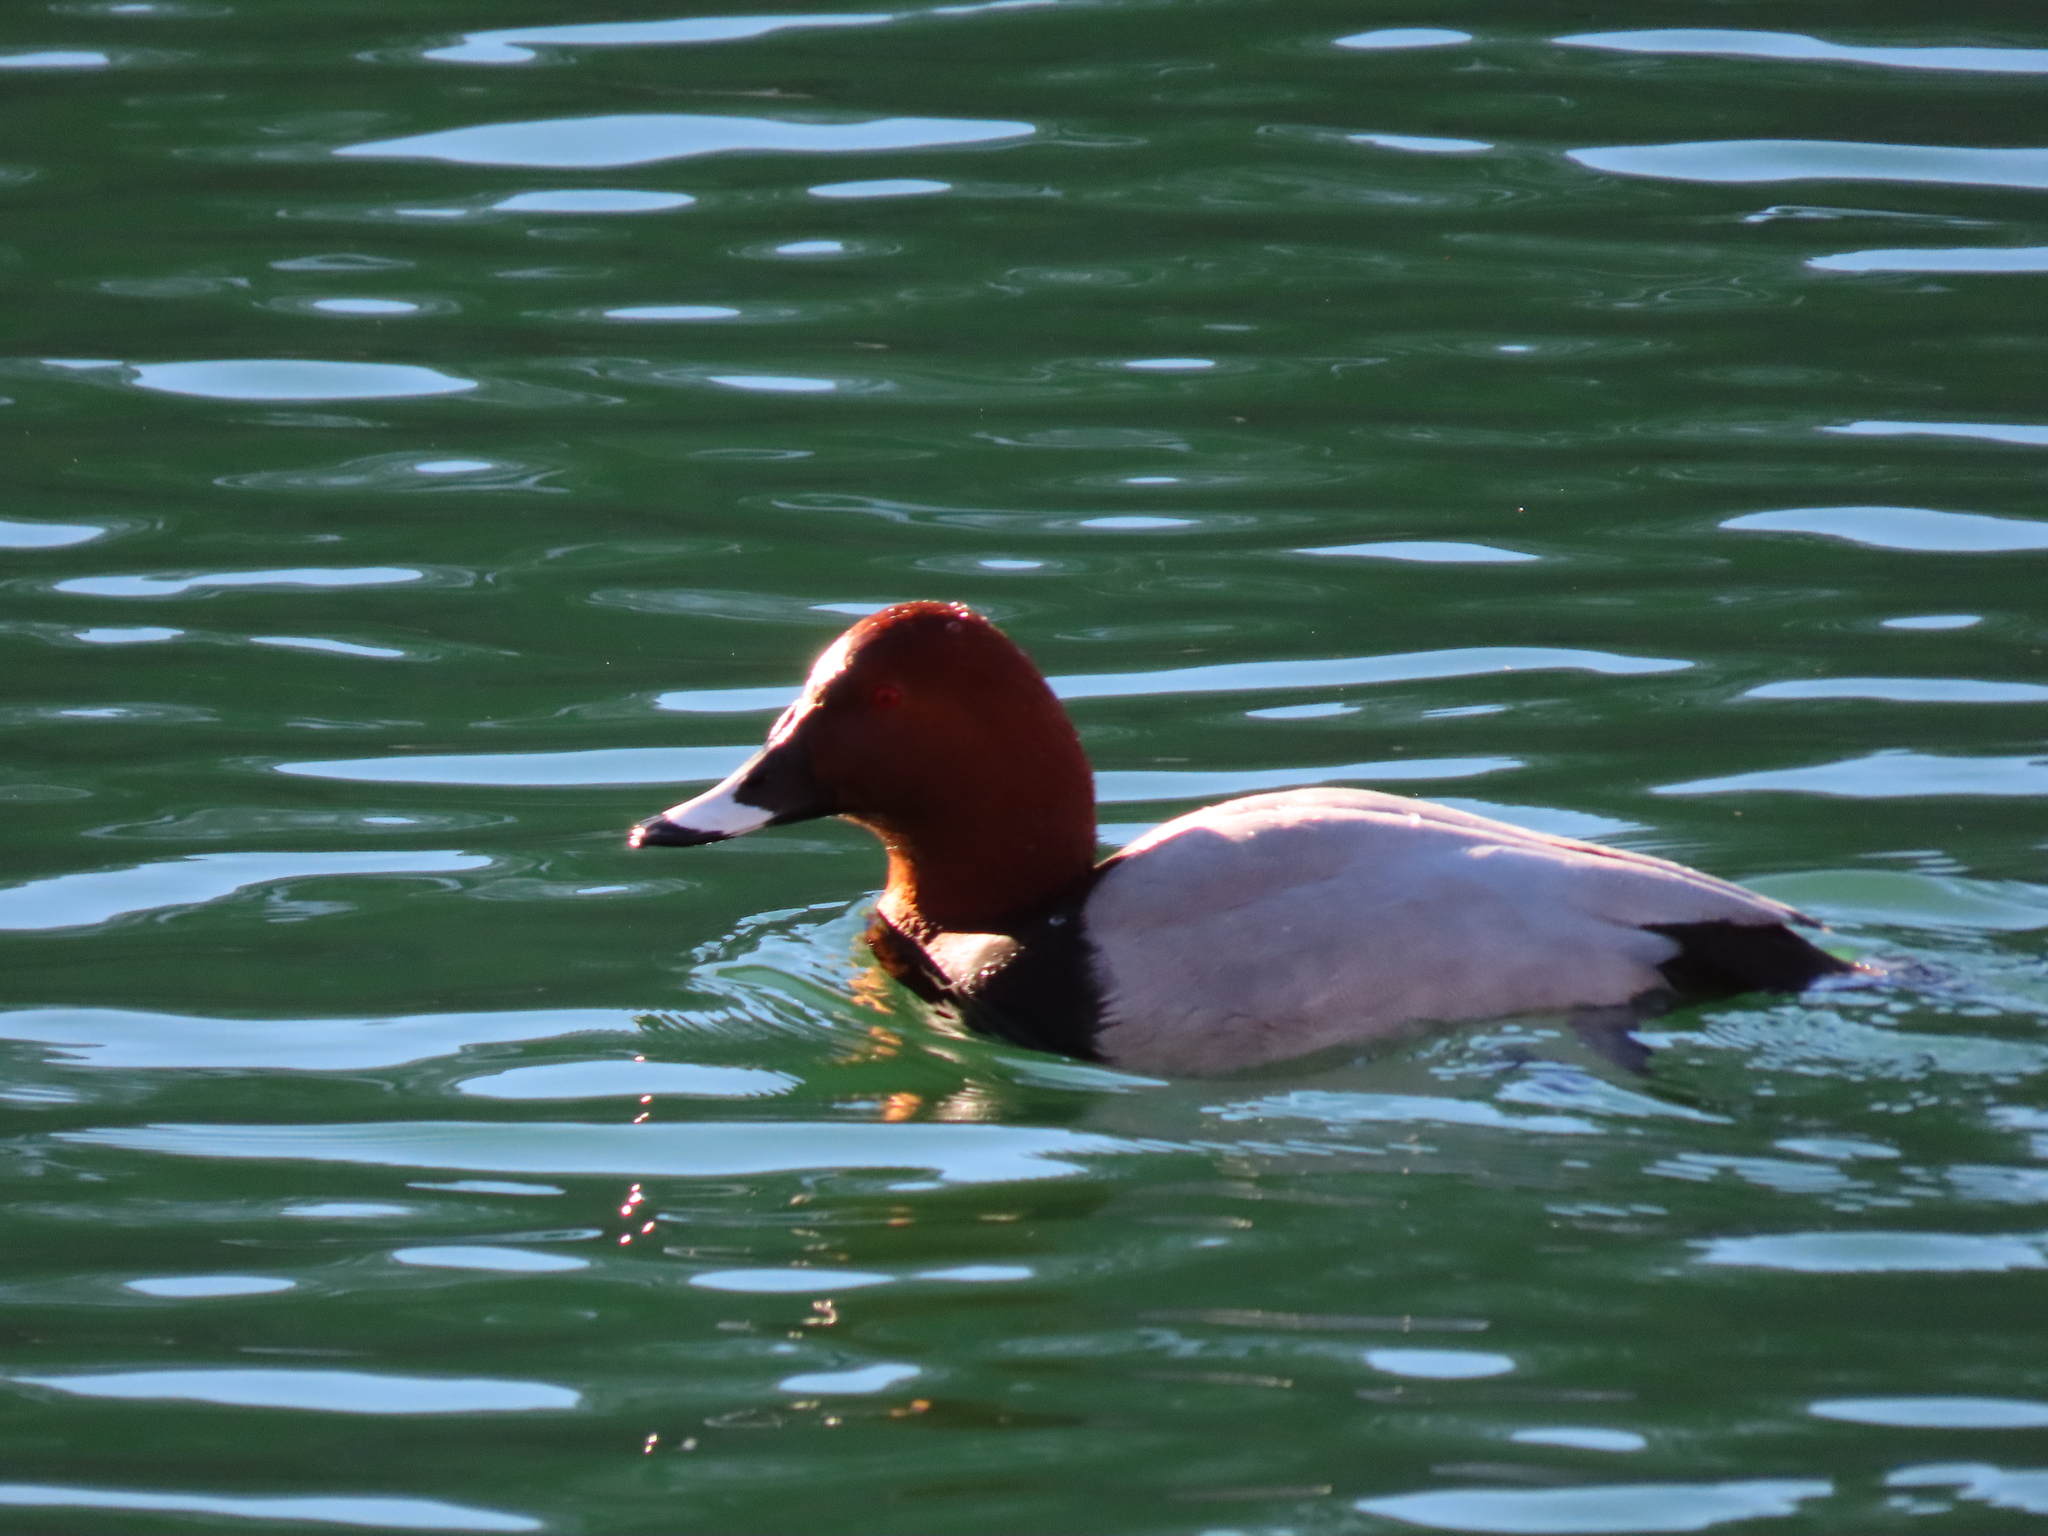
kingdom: Animalia
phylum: Chordata
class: Aves
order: Anseriformes
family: Anatidae
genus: Aythya
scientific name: Aythya ferina
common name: Common pochard
